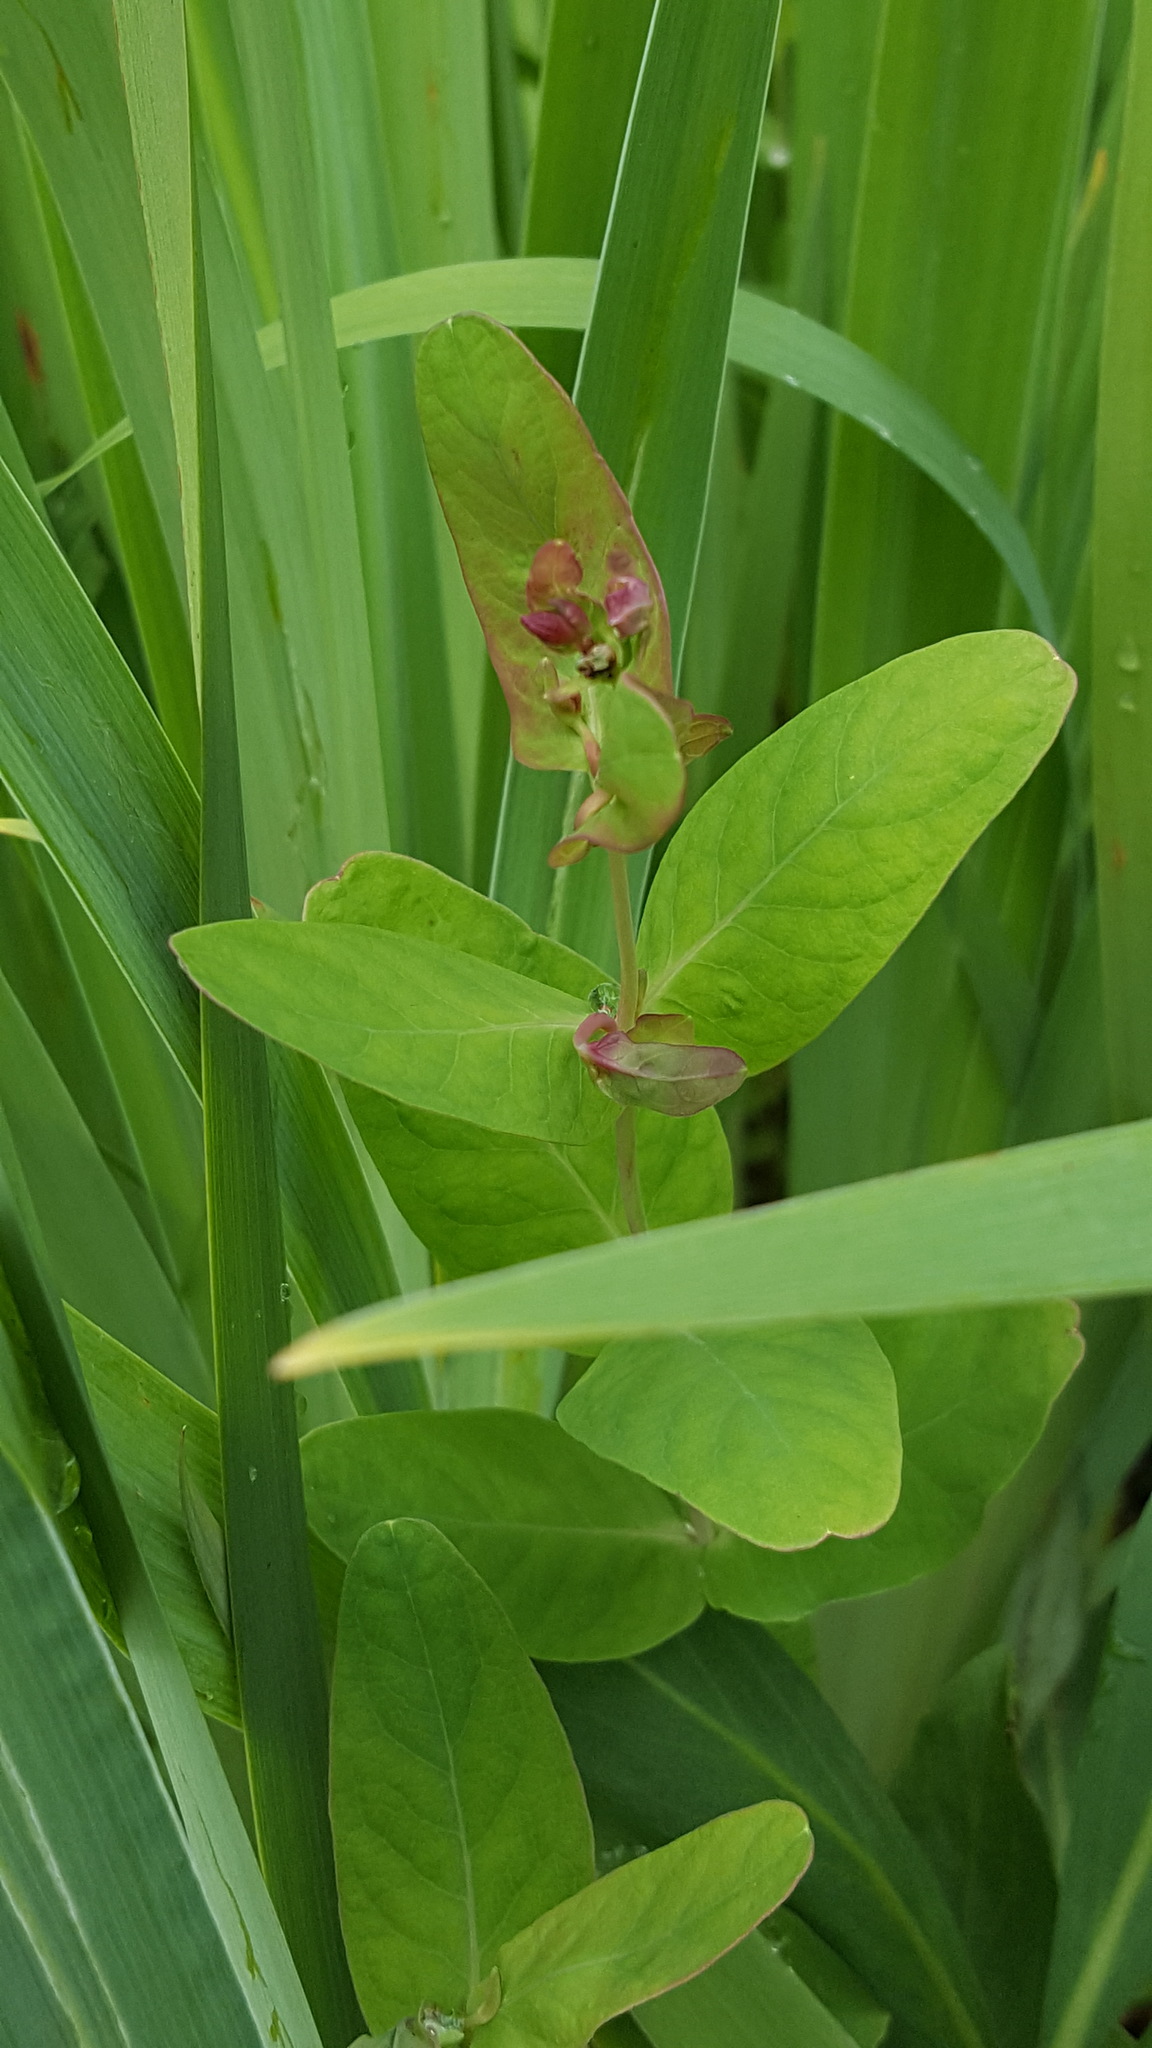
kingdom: Plantae
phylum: Tracheophyta
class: Magnoliopsida
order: Malpighiales
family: Hypericaceae
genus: Triadenum
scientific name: Triadenum fraseri
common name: Fraser's marsh st. johnswort
